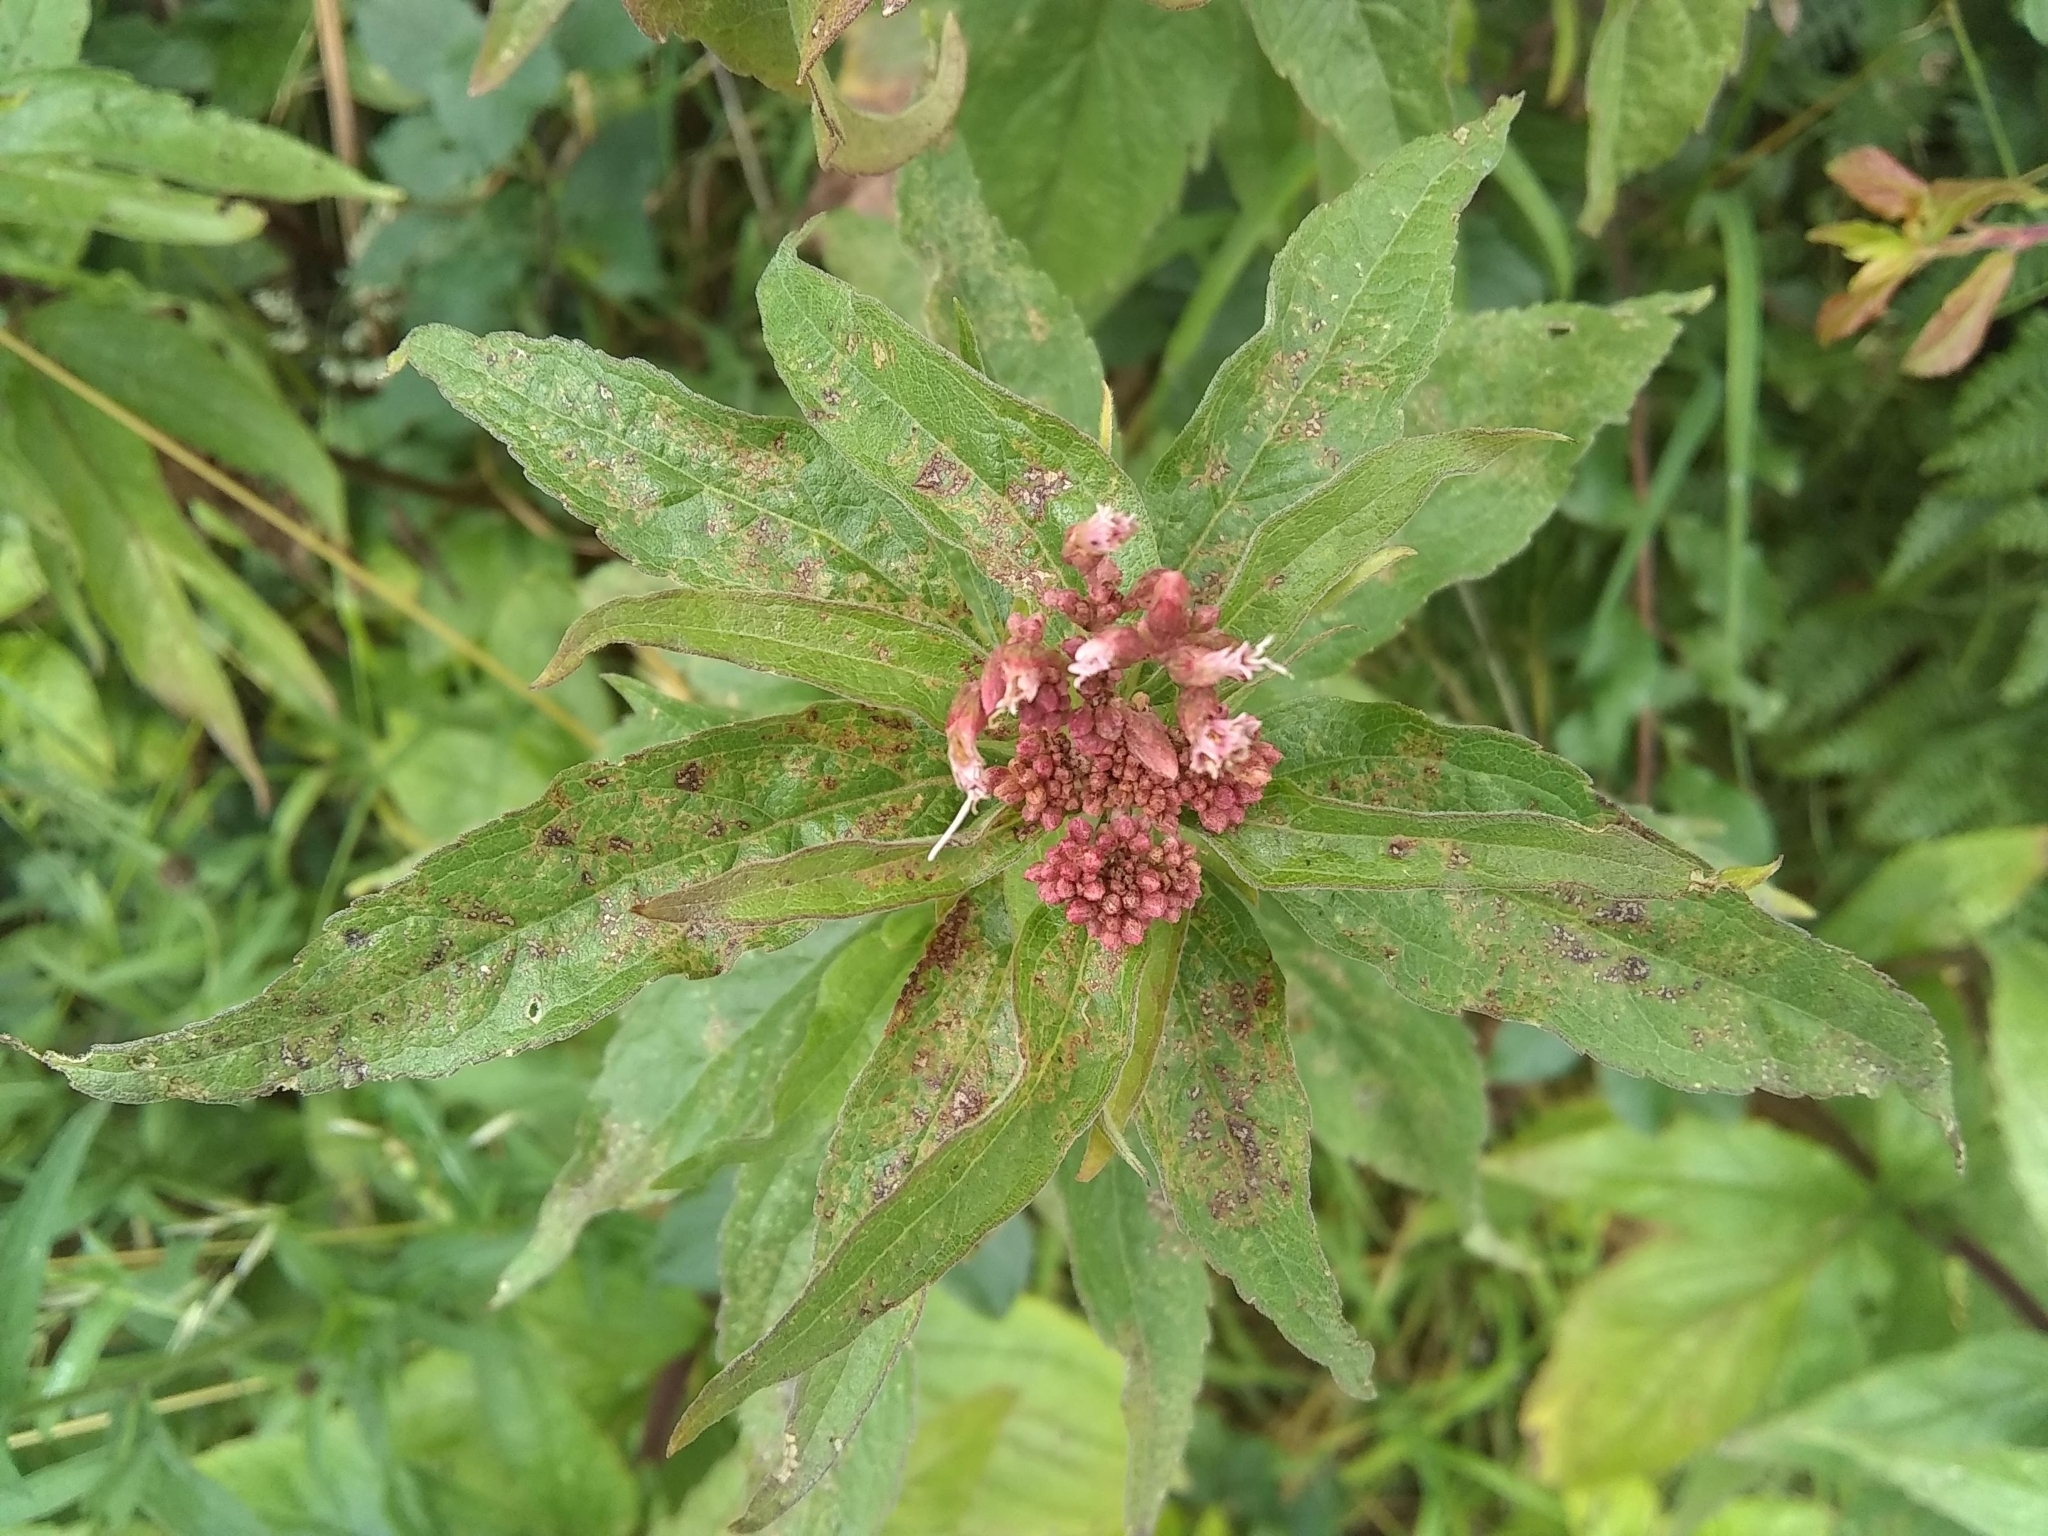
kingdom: Plantae
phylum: Tracheophyta
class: Magnoliopsida
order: Asterales
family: Asteraceae
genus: Eupatorium
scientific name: Eupatorium cannabinum
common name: Hemp-agrimony
